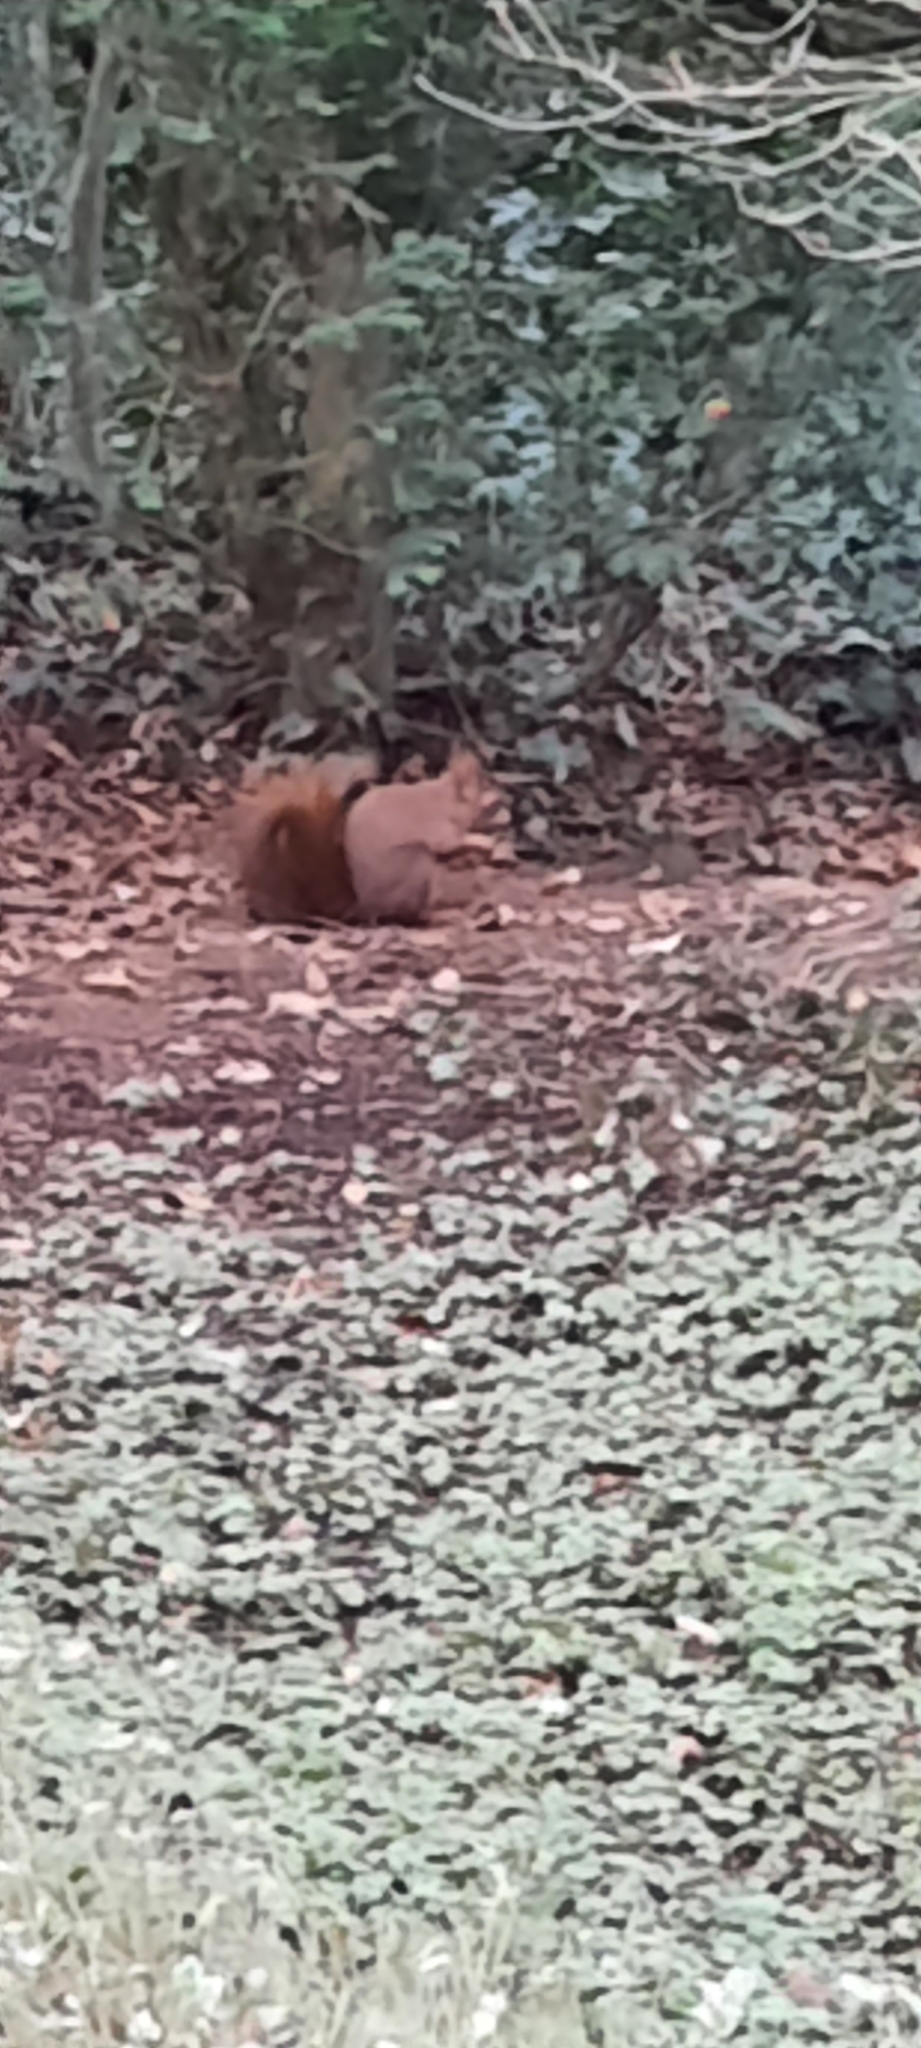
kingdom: Animalia
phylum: Chordata
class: Mammalia
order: Rodentia
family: Sciuridae
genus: Sciurus
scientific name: Sciurus vulgaris
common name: Eurasian red squirrel
